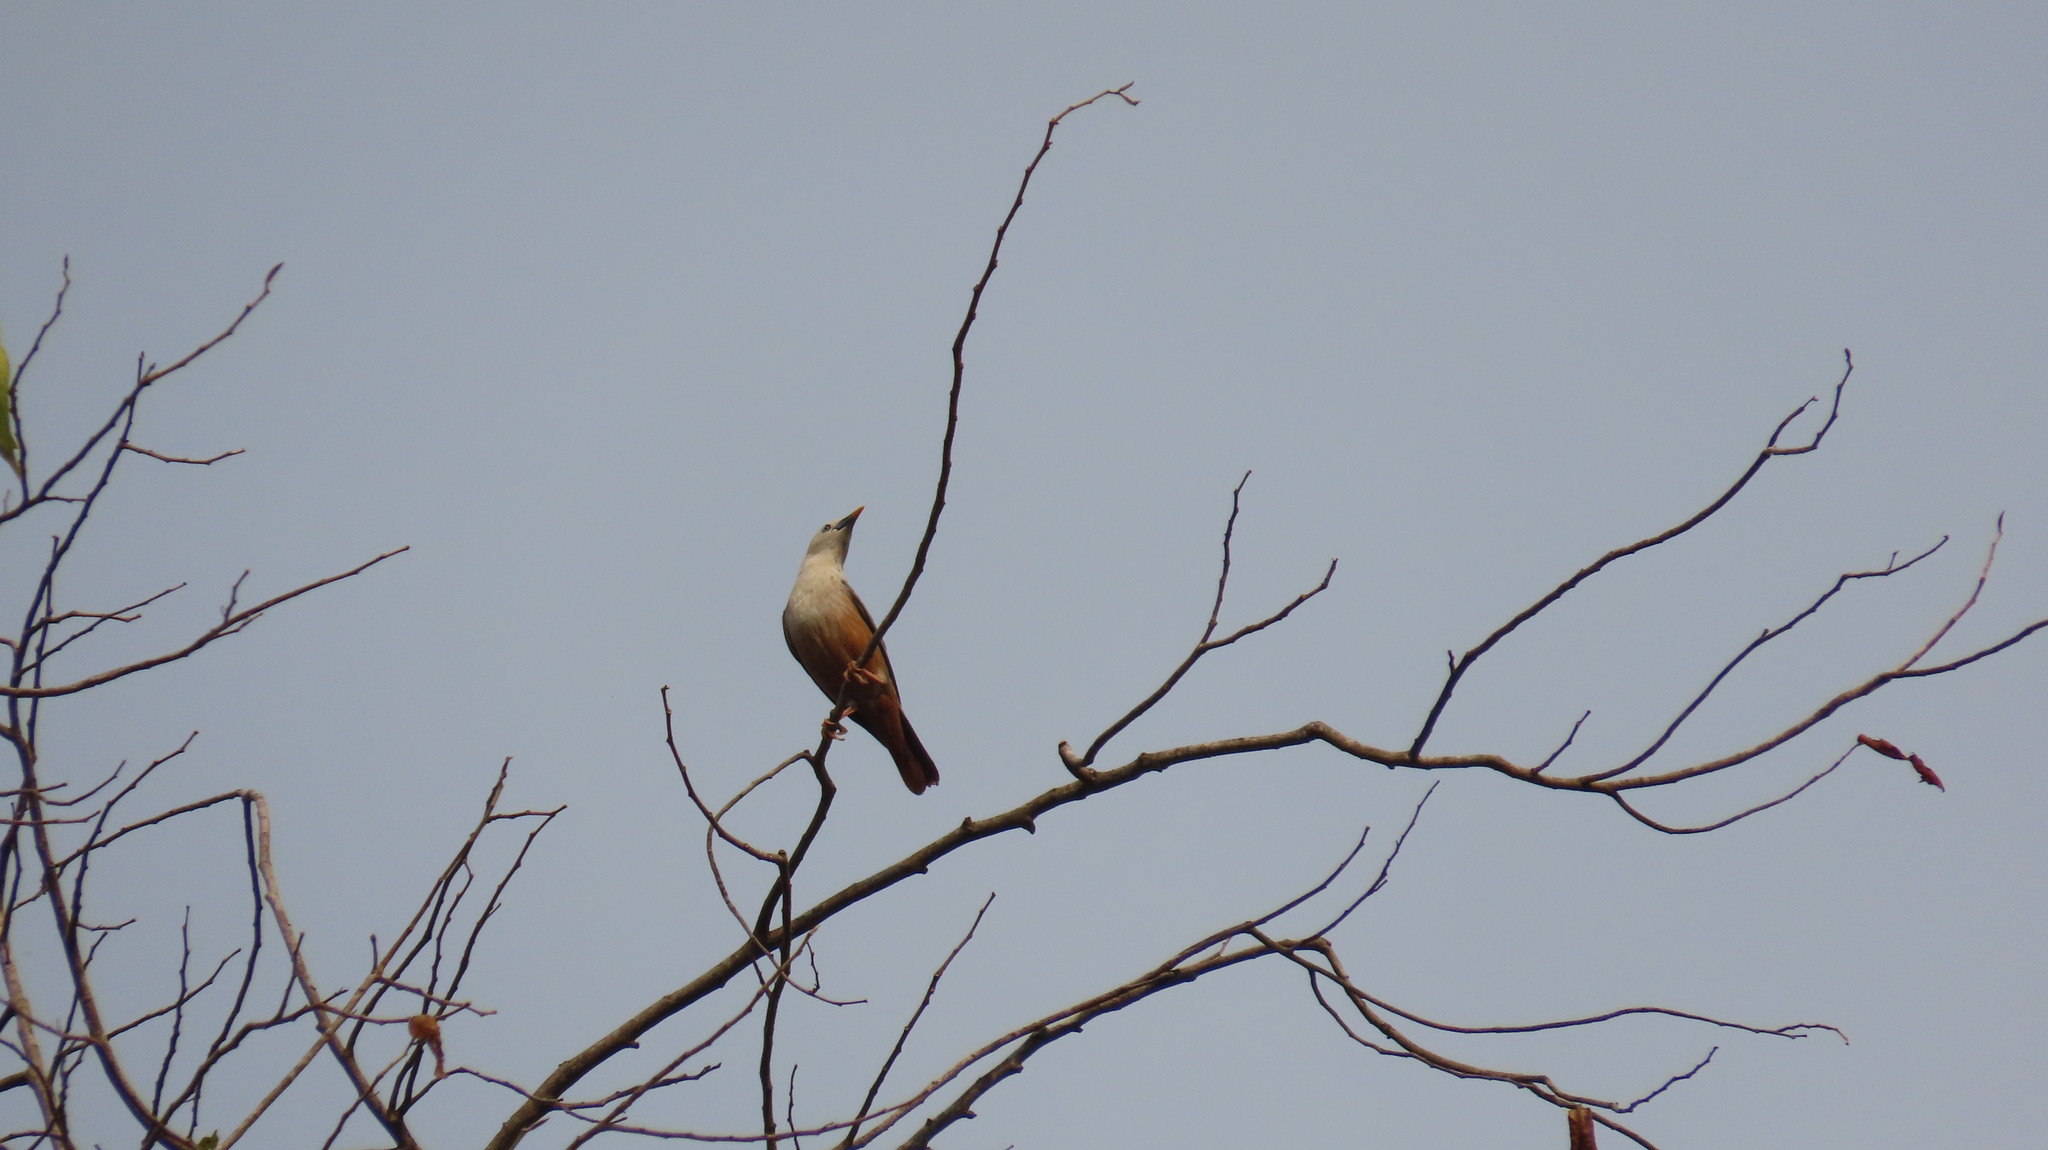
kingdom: Animalia
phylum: Chordata
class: Aves
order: Passeriformes
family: Sturnidae
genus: Sturnia
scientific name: Sturnia blythii
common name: Malabar starling
